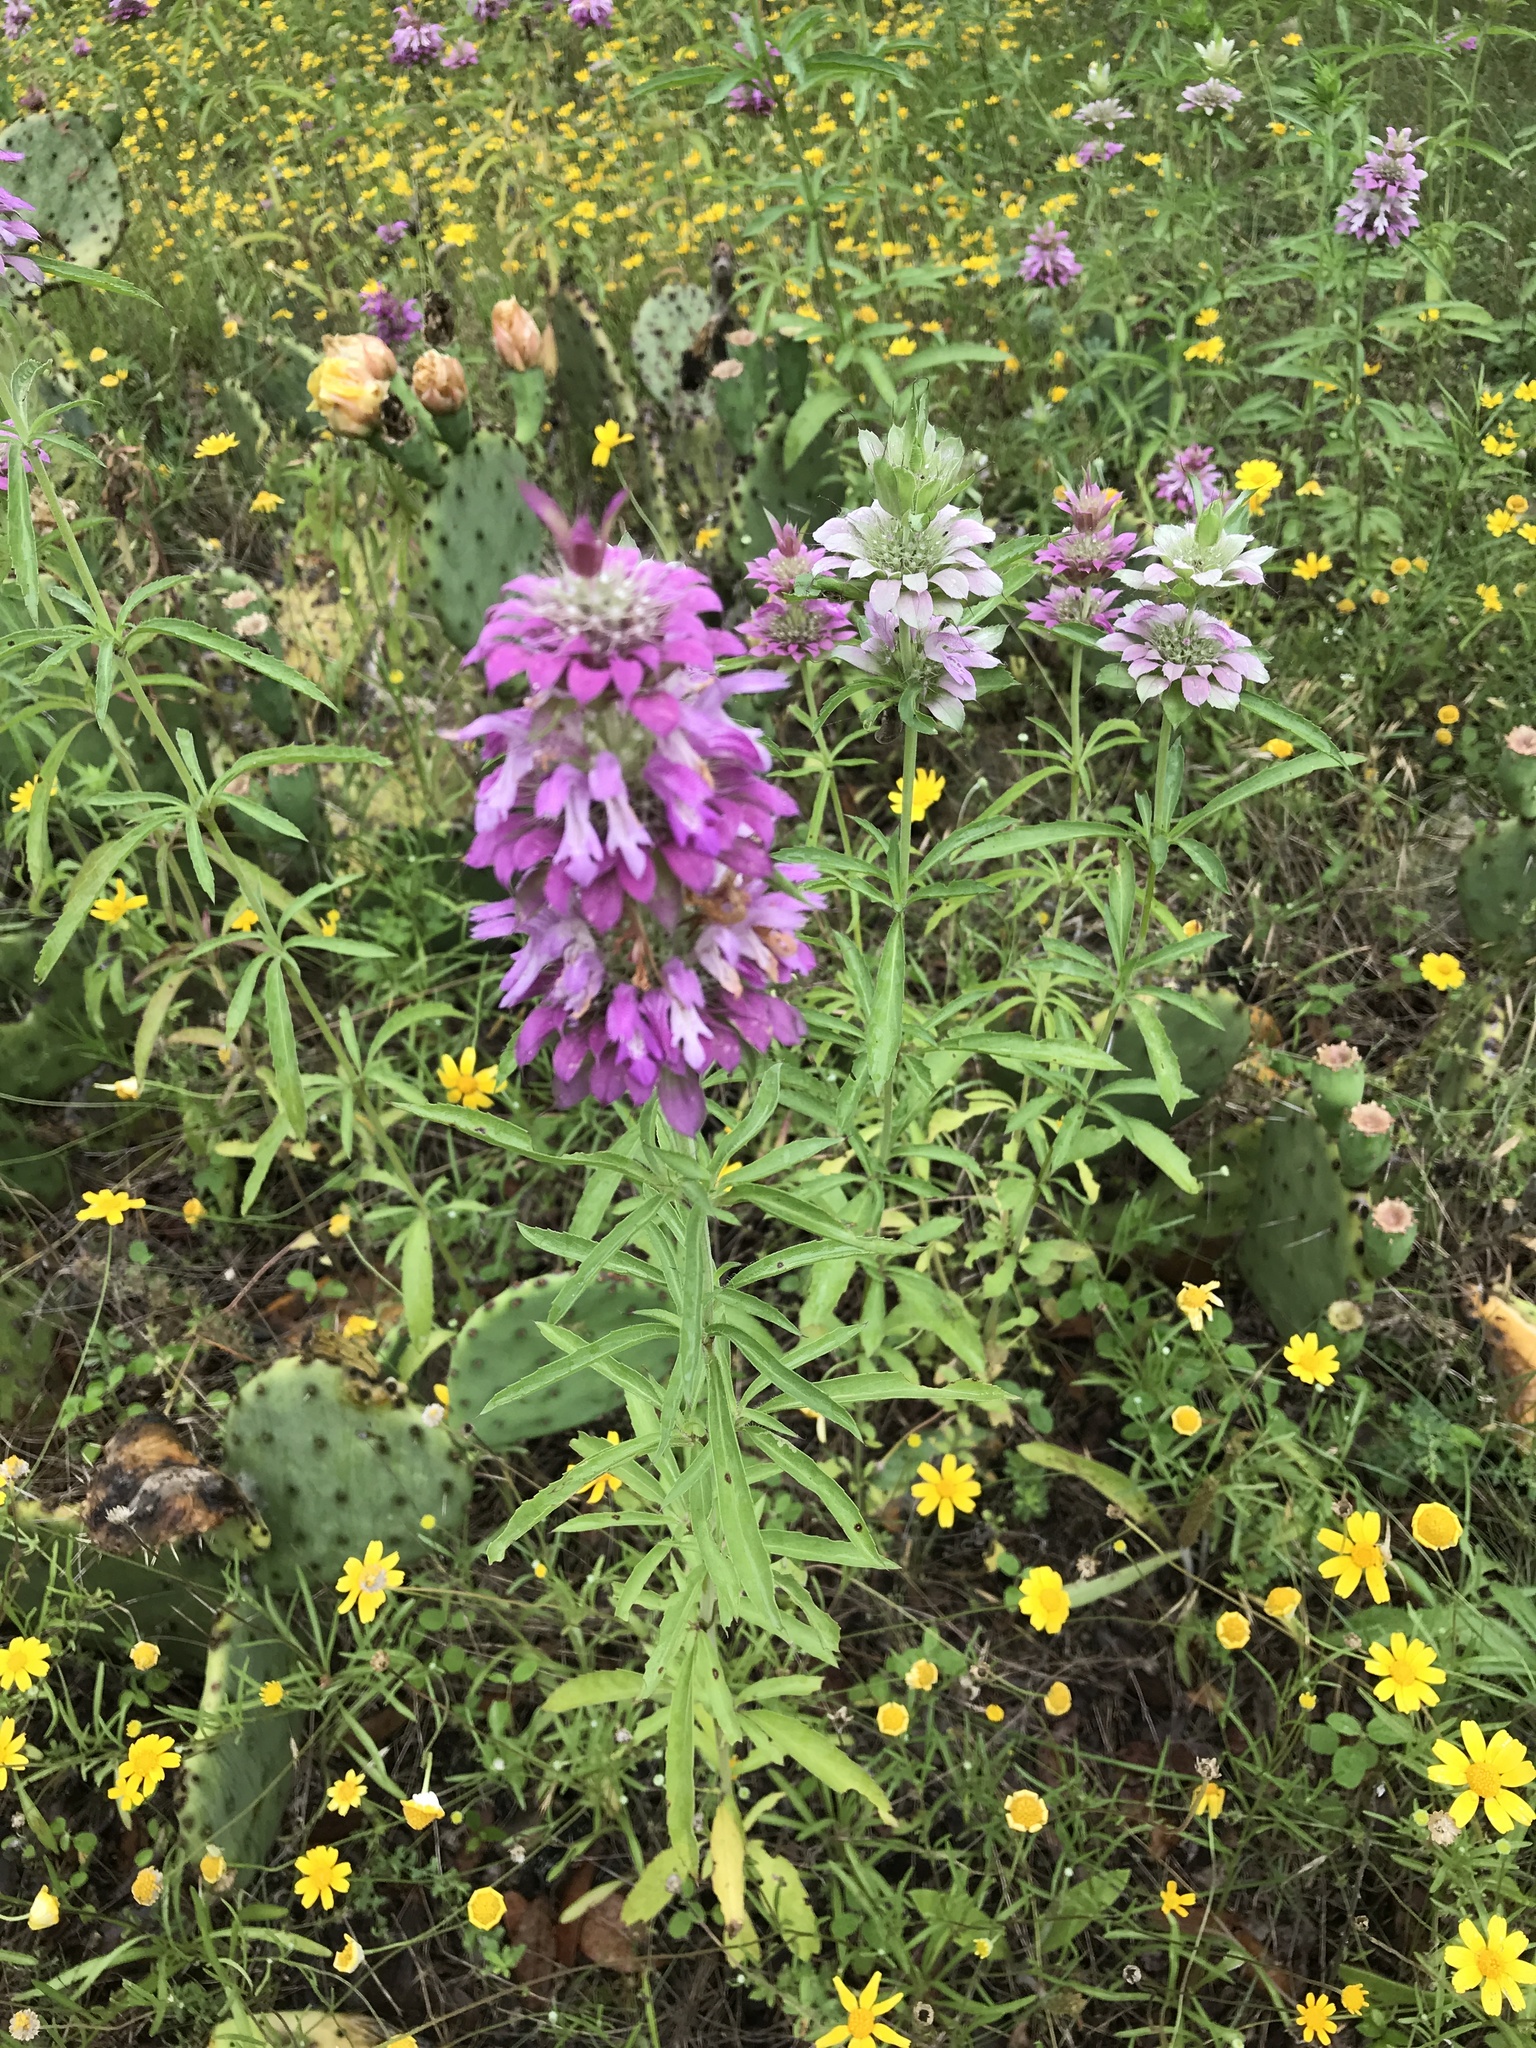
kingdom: Plantae
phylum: Tracheophyta
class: Magnoliopsida
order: Lamiales
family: Lamiaceae
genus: Monarda
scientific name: Monarda citriodora
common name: Lemon beebalm
